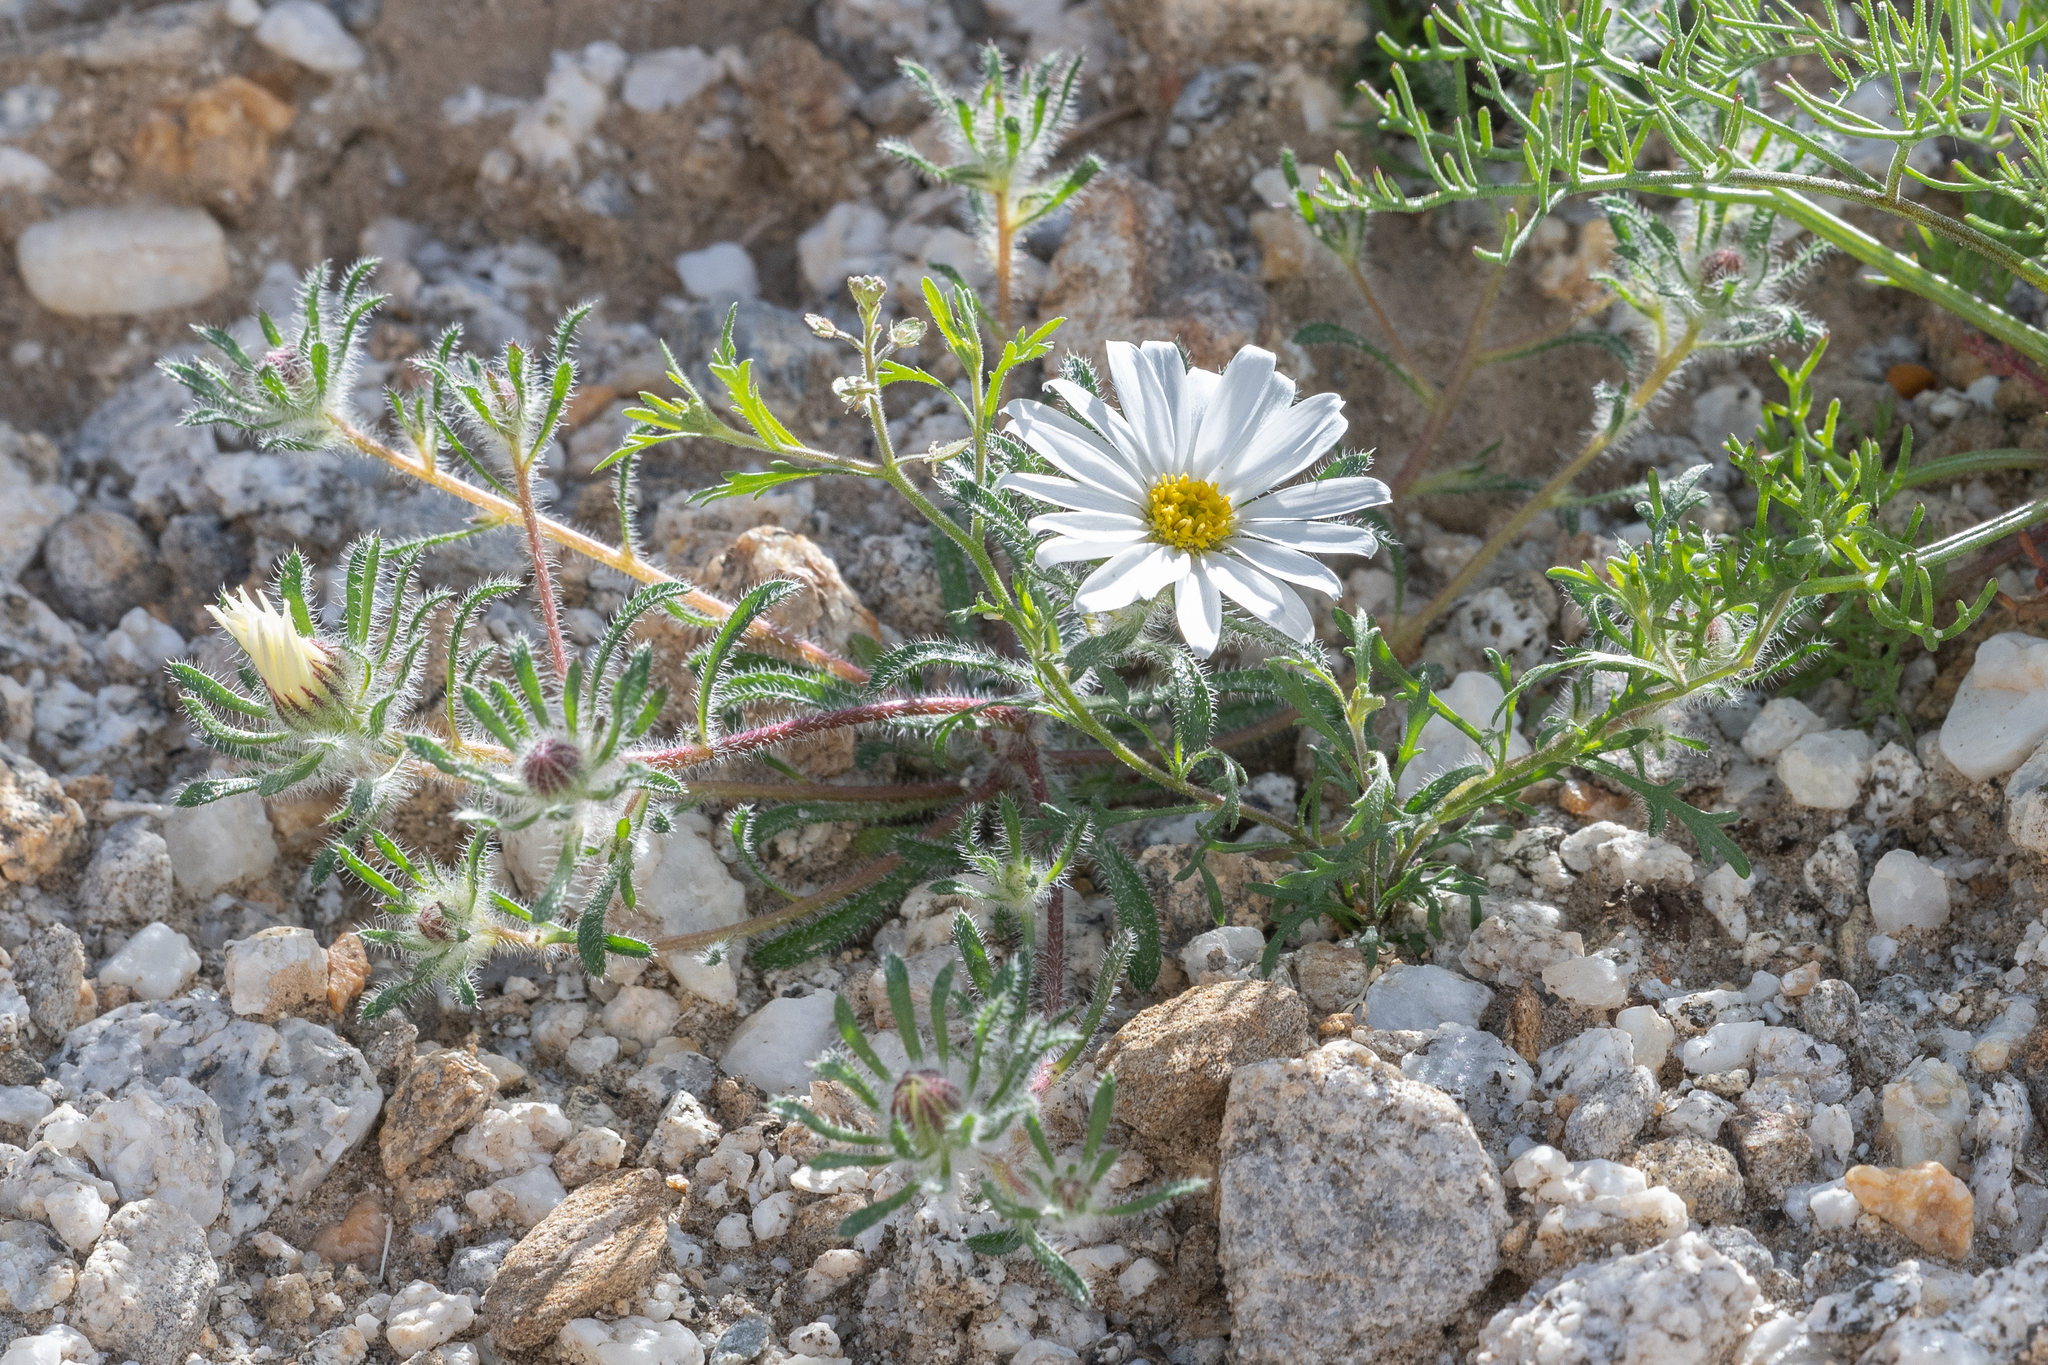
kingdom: Plantae
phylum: Tracheophyta
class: Magnoliopsida
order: Asterales
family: Asteraceae
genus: Monoptilon
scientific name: Monoptilon bellioides
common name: Bristly desertstar
